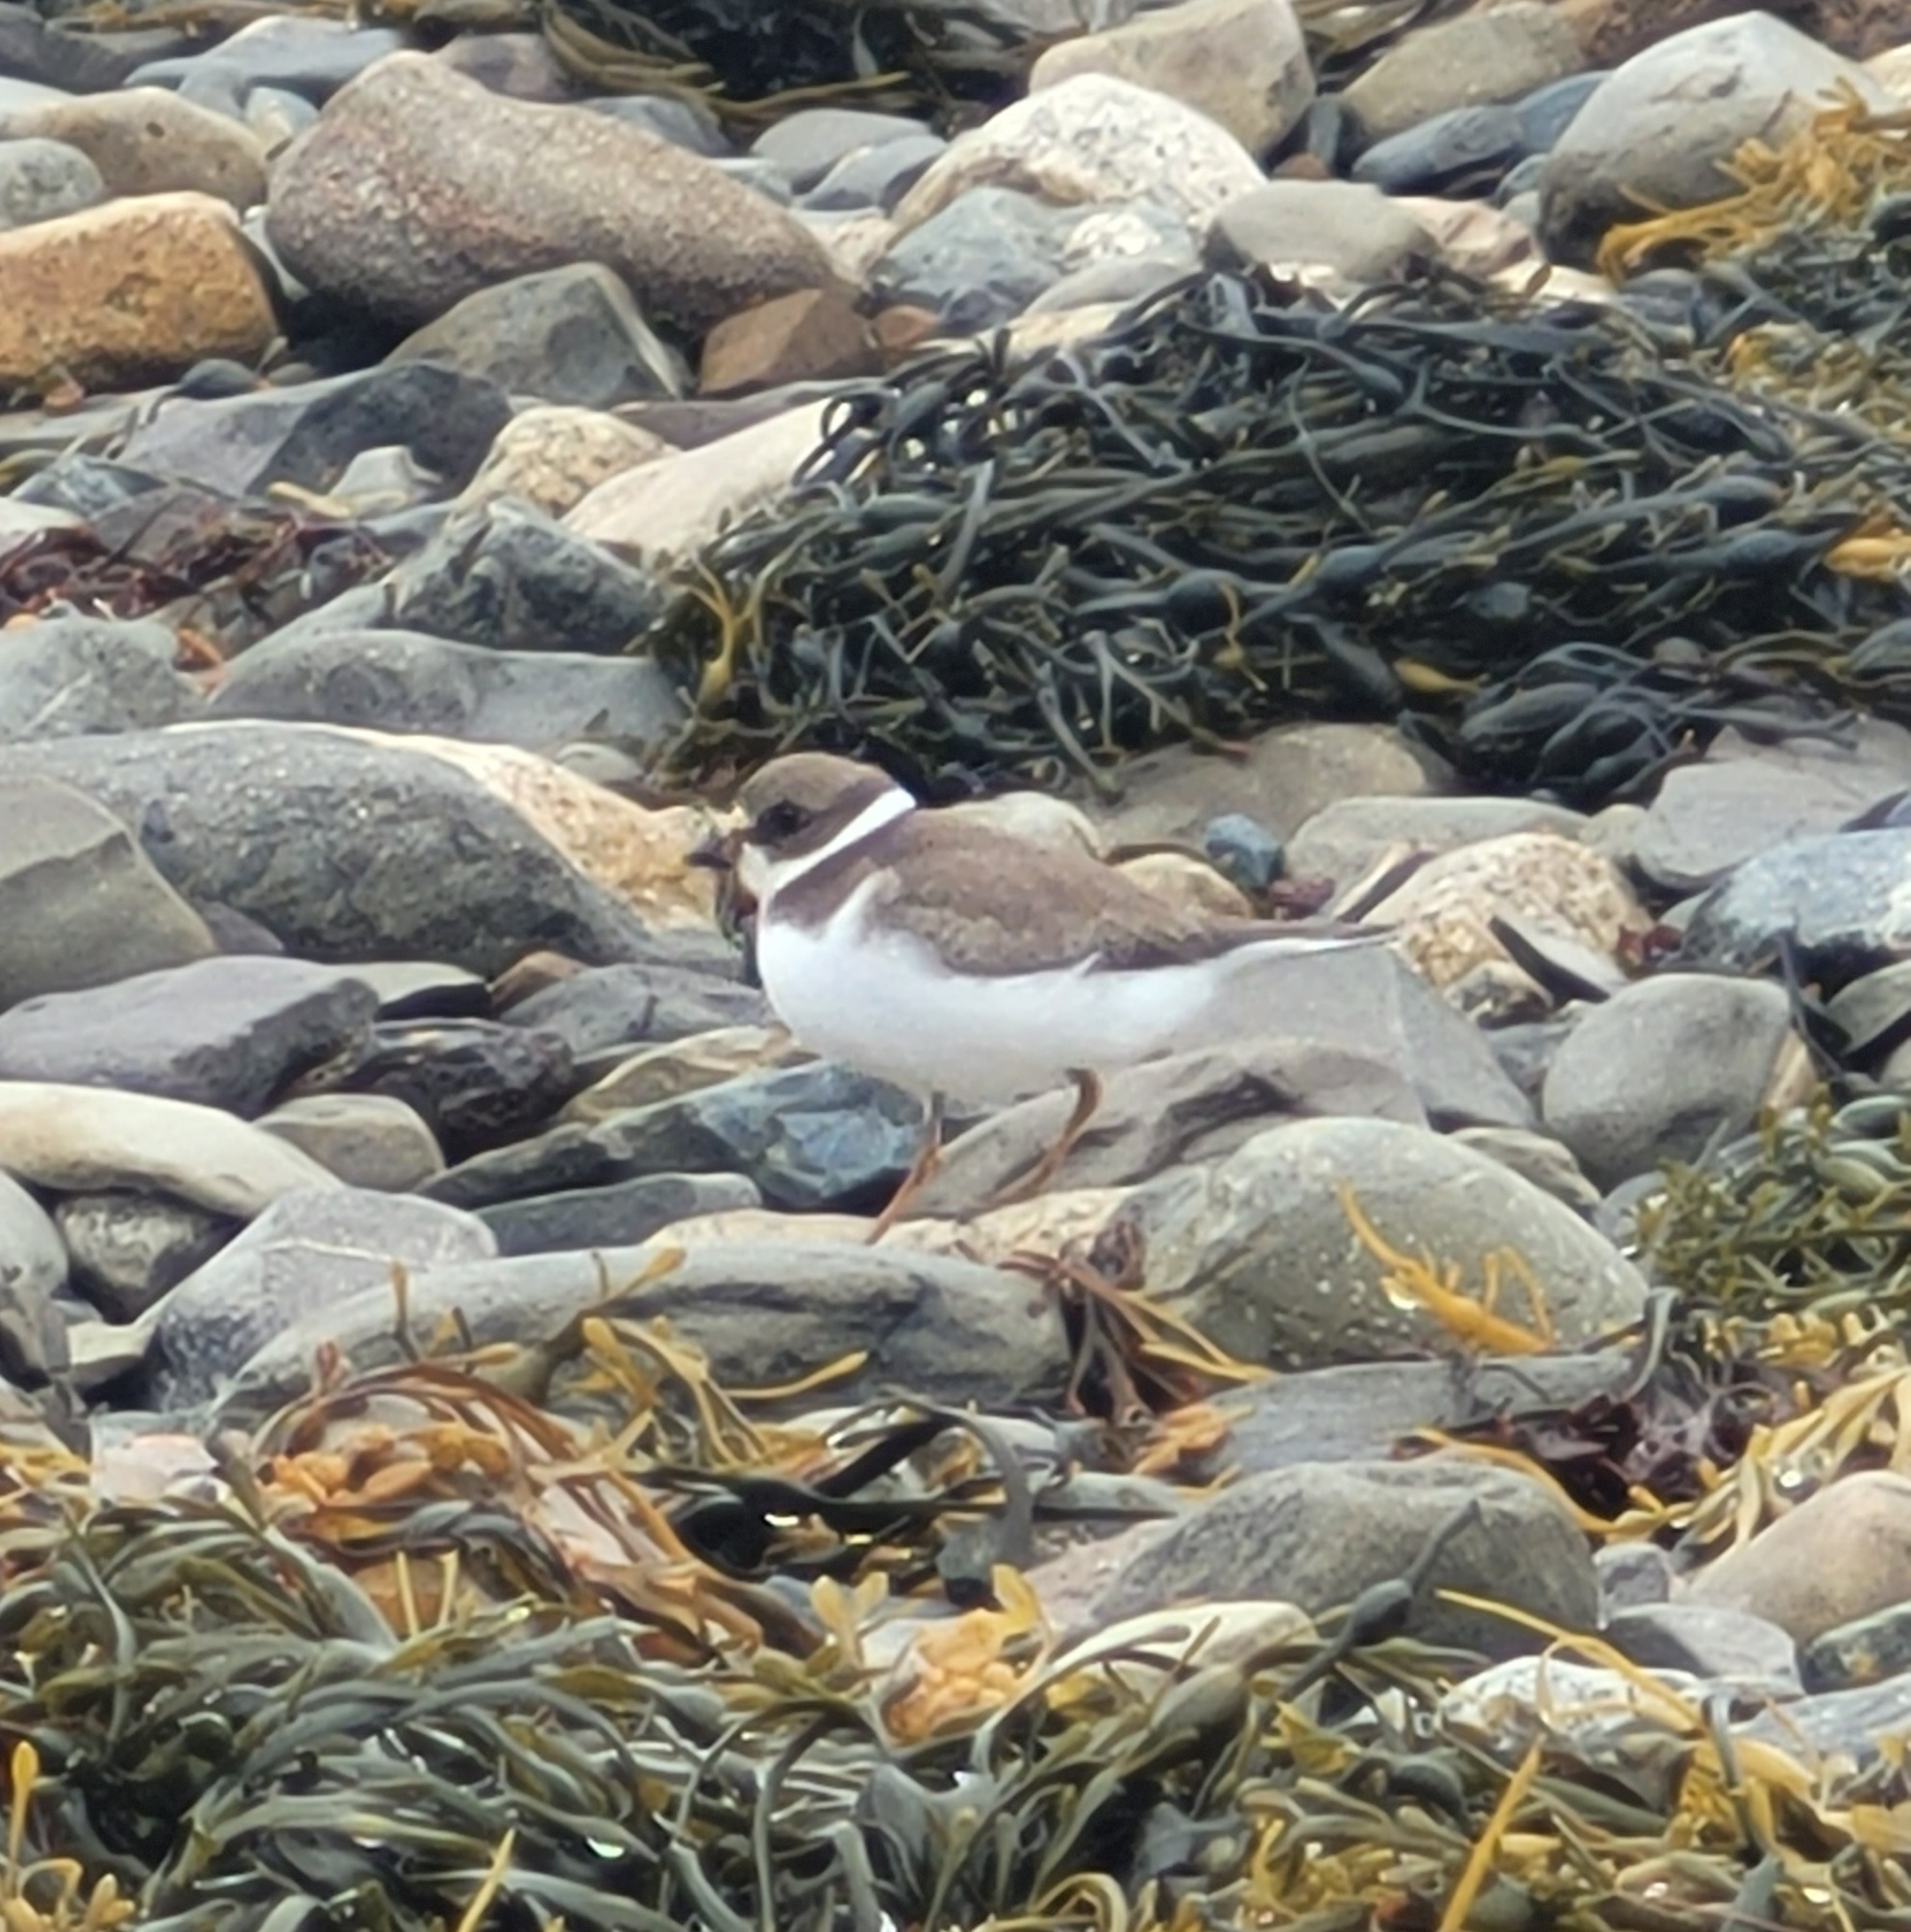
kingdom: Animalia
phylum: Chordata
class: Aves
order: Charadriiformes
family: Charadriidae
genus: Charadrius
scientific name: Charadrius semipalmatus
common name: Semipalmated plover
